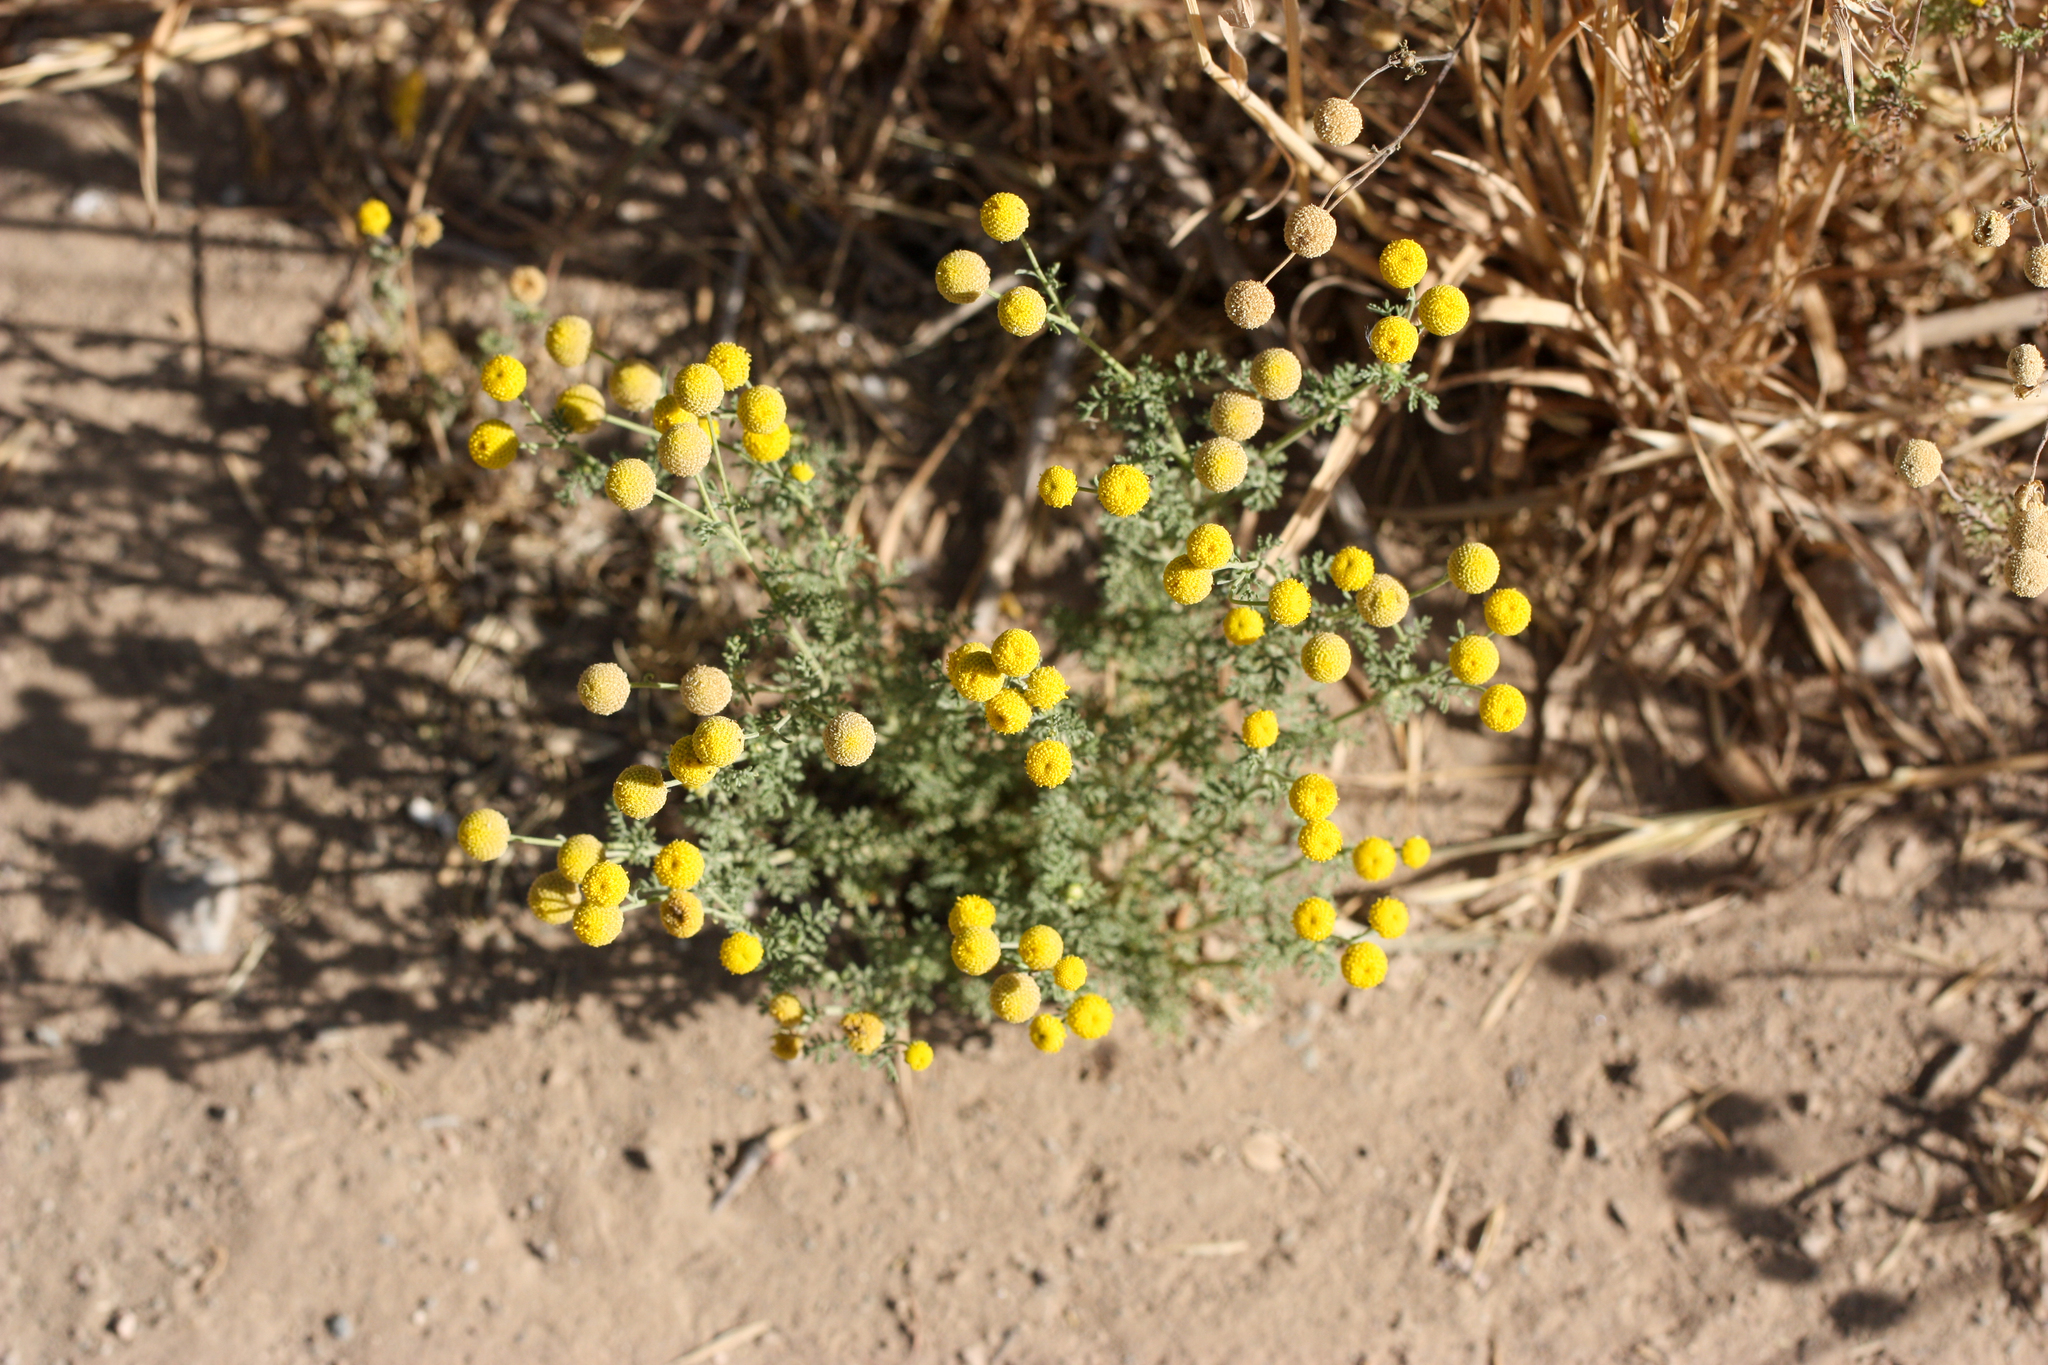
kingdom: Plantae
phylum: Tracheophyta
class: Magnoliopsida
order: Asterales
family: Asteraceae
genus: Oncosiphon
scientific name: Oncosiphon pilulifer
